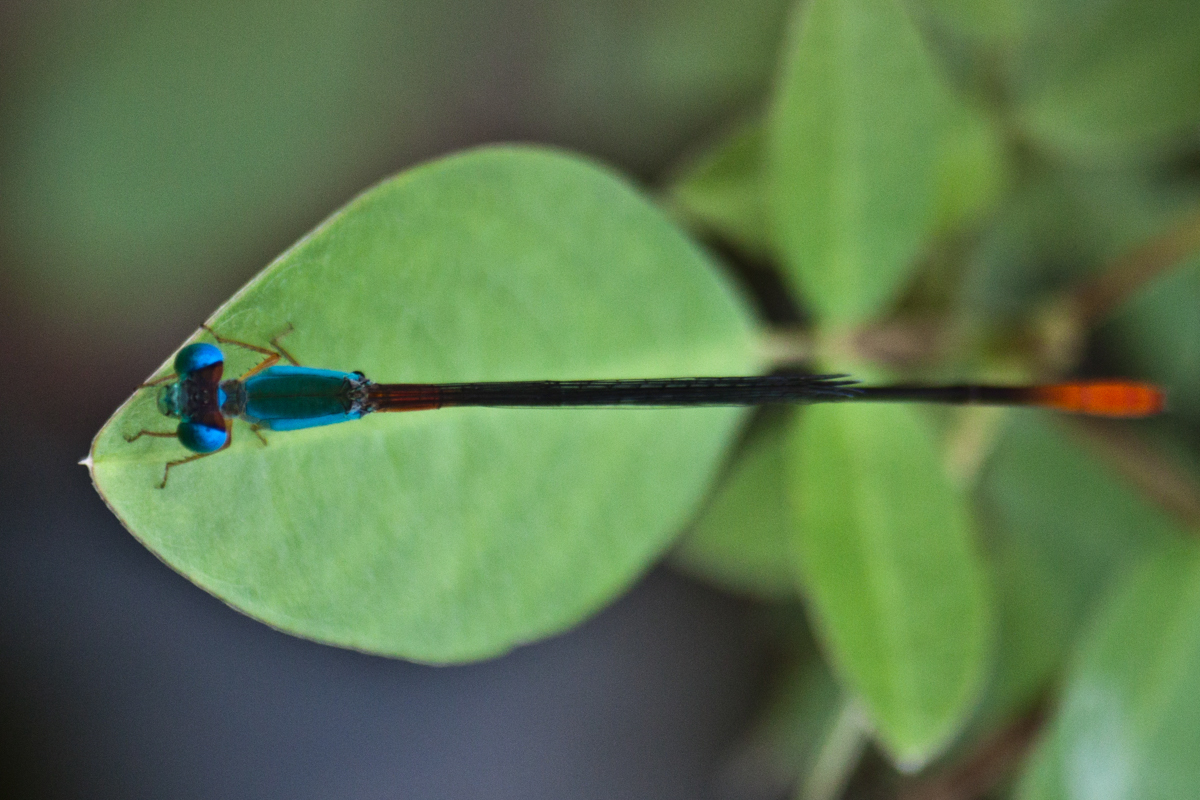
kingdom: Animalia
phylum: Arthropoda
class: Insecta
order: Odonata
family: Coenagrionidae
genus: Ceriagrion
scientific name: Ceriagrion cerinorubellum
